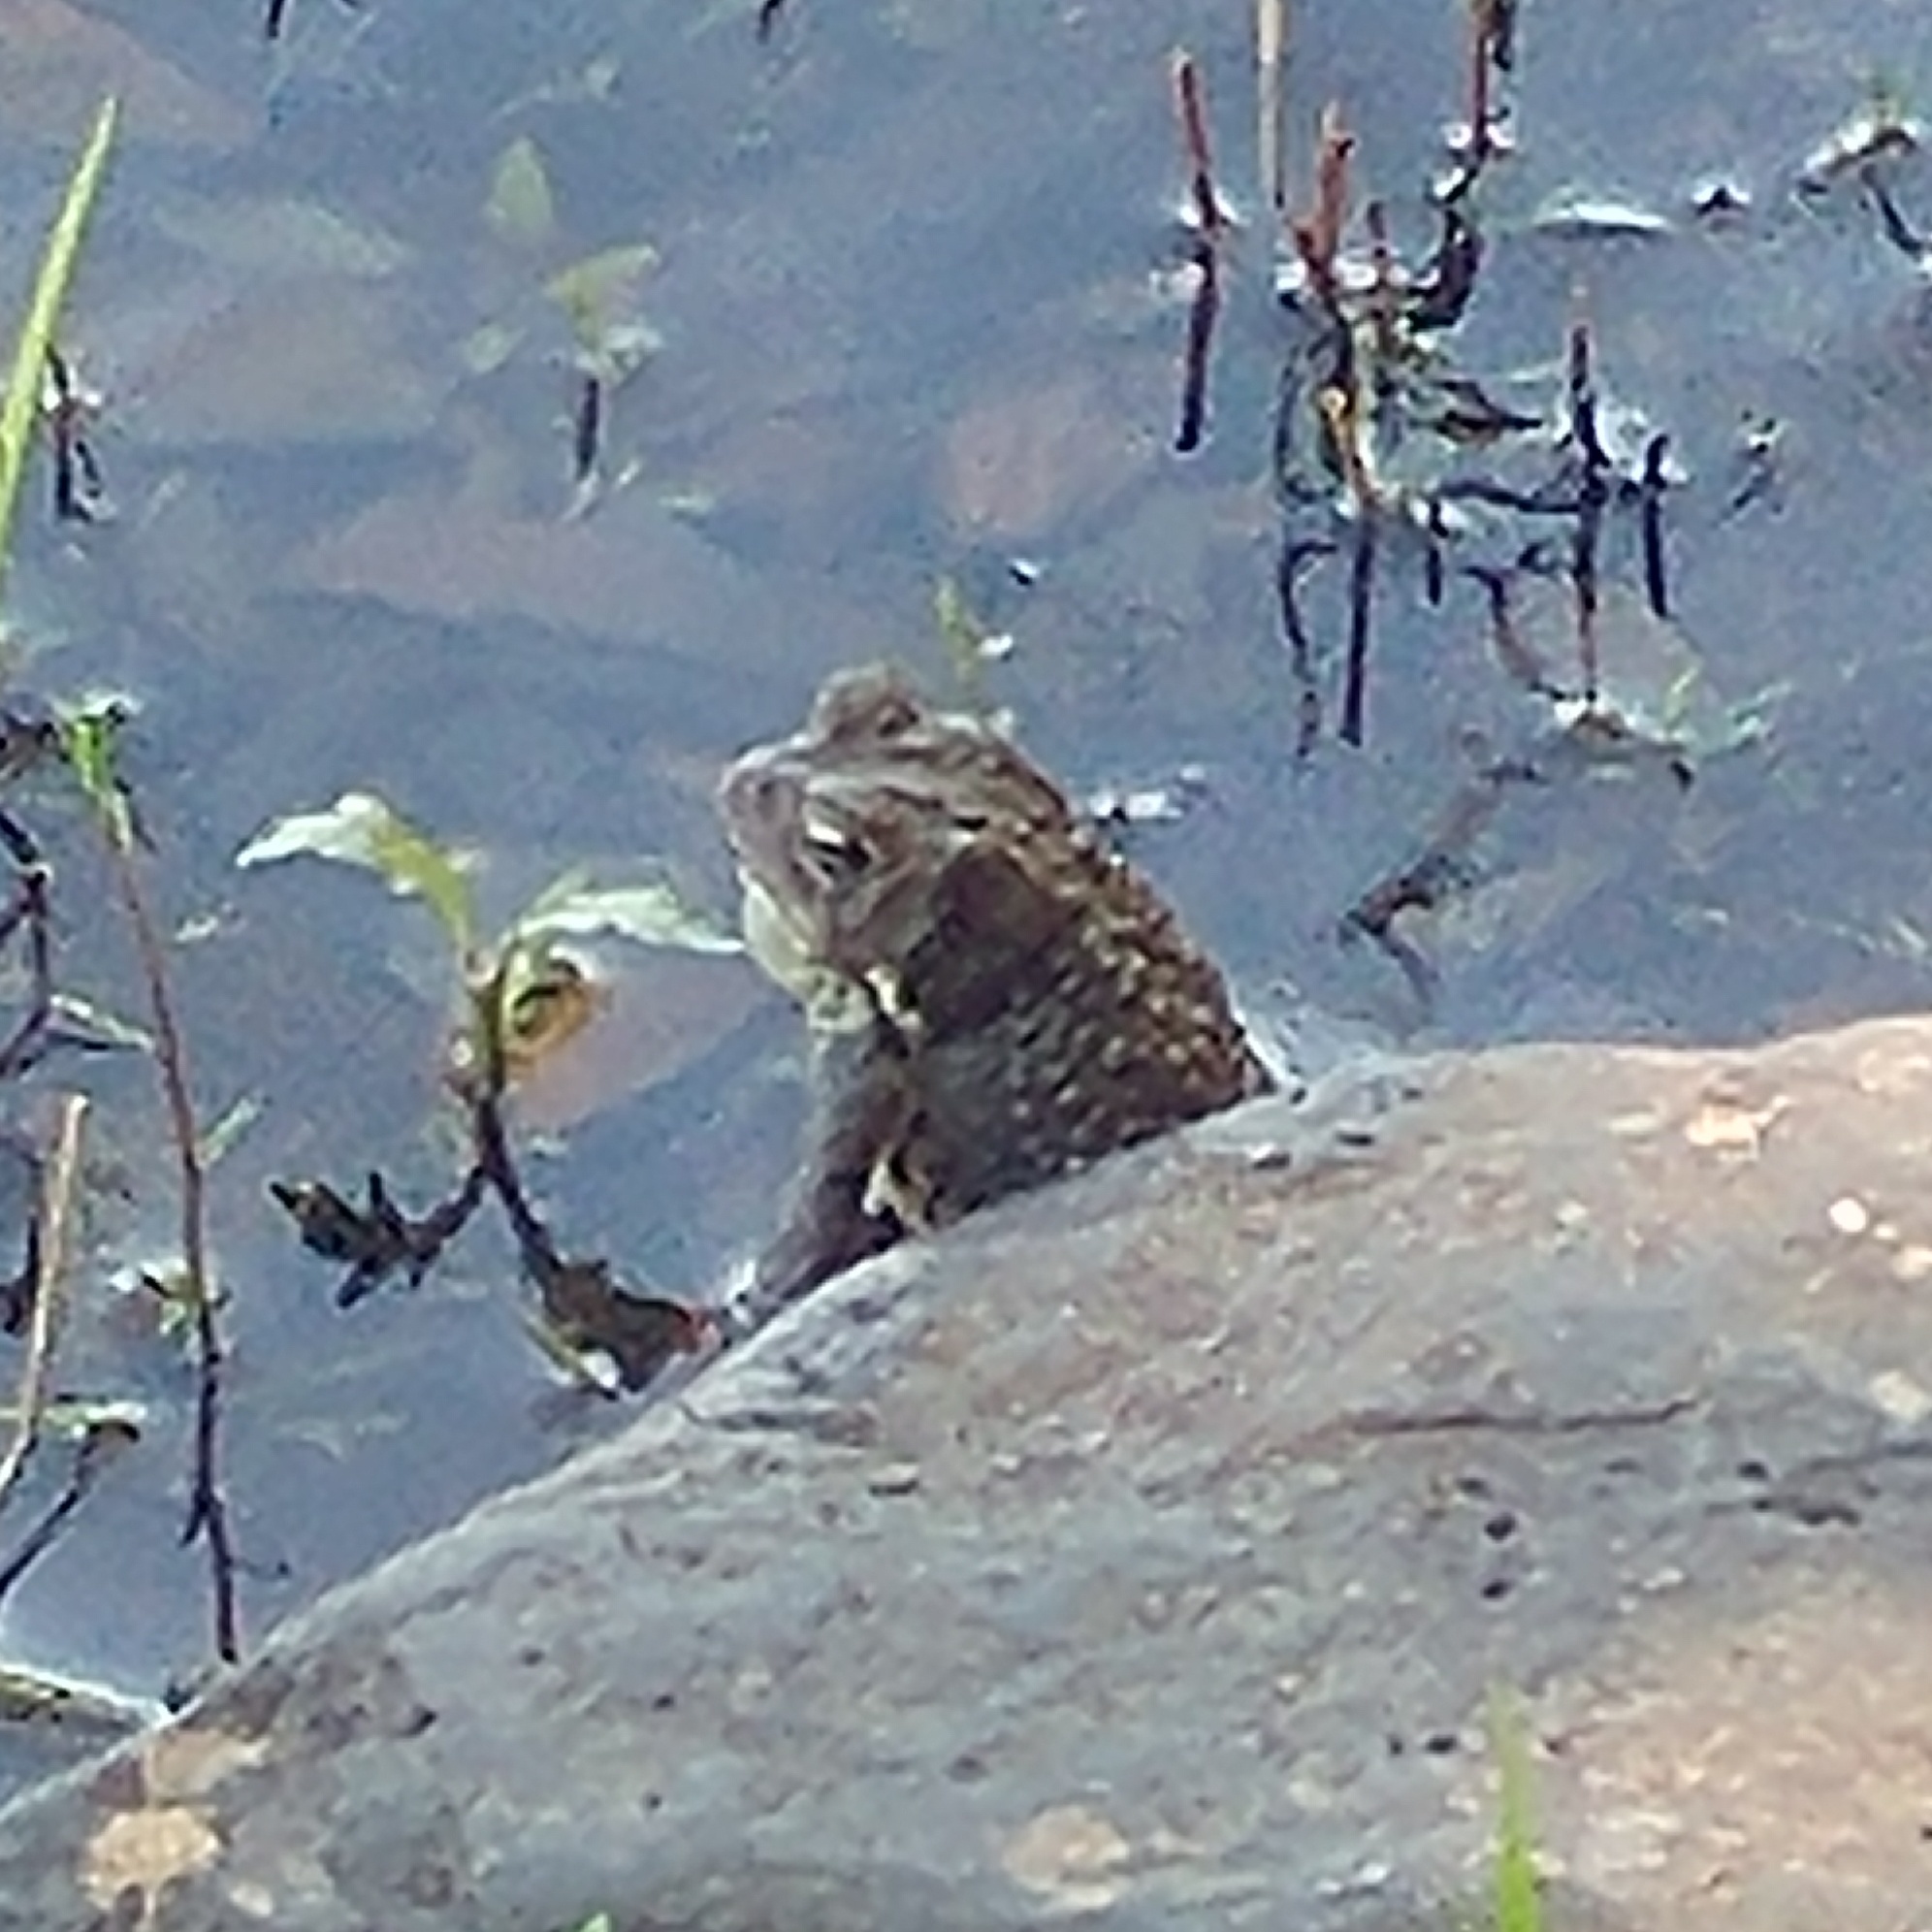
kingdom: Animalia
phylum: Chordata
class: Amphibia
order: Anura
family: Bufonidae
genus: Anaxyrus
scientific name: Anaxyrus americanus
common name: American toad
